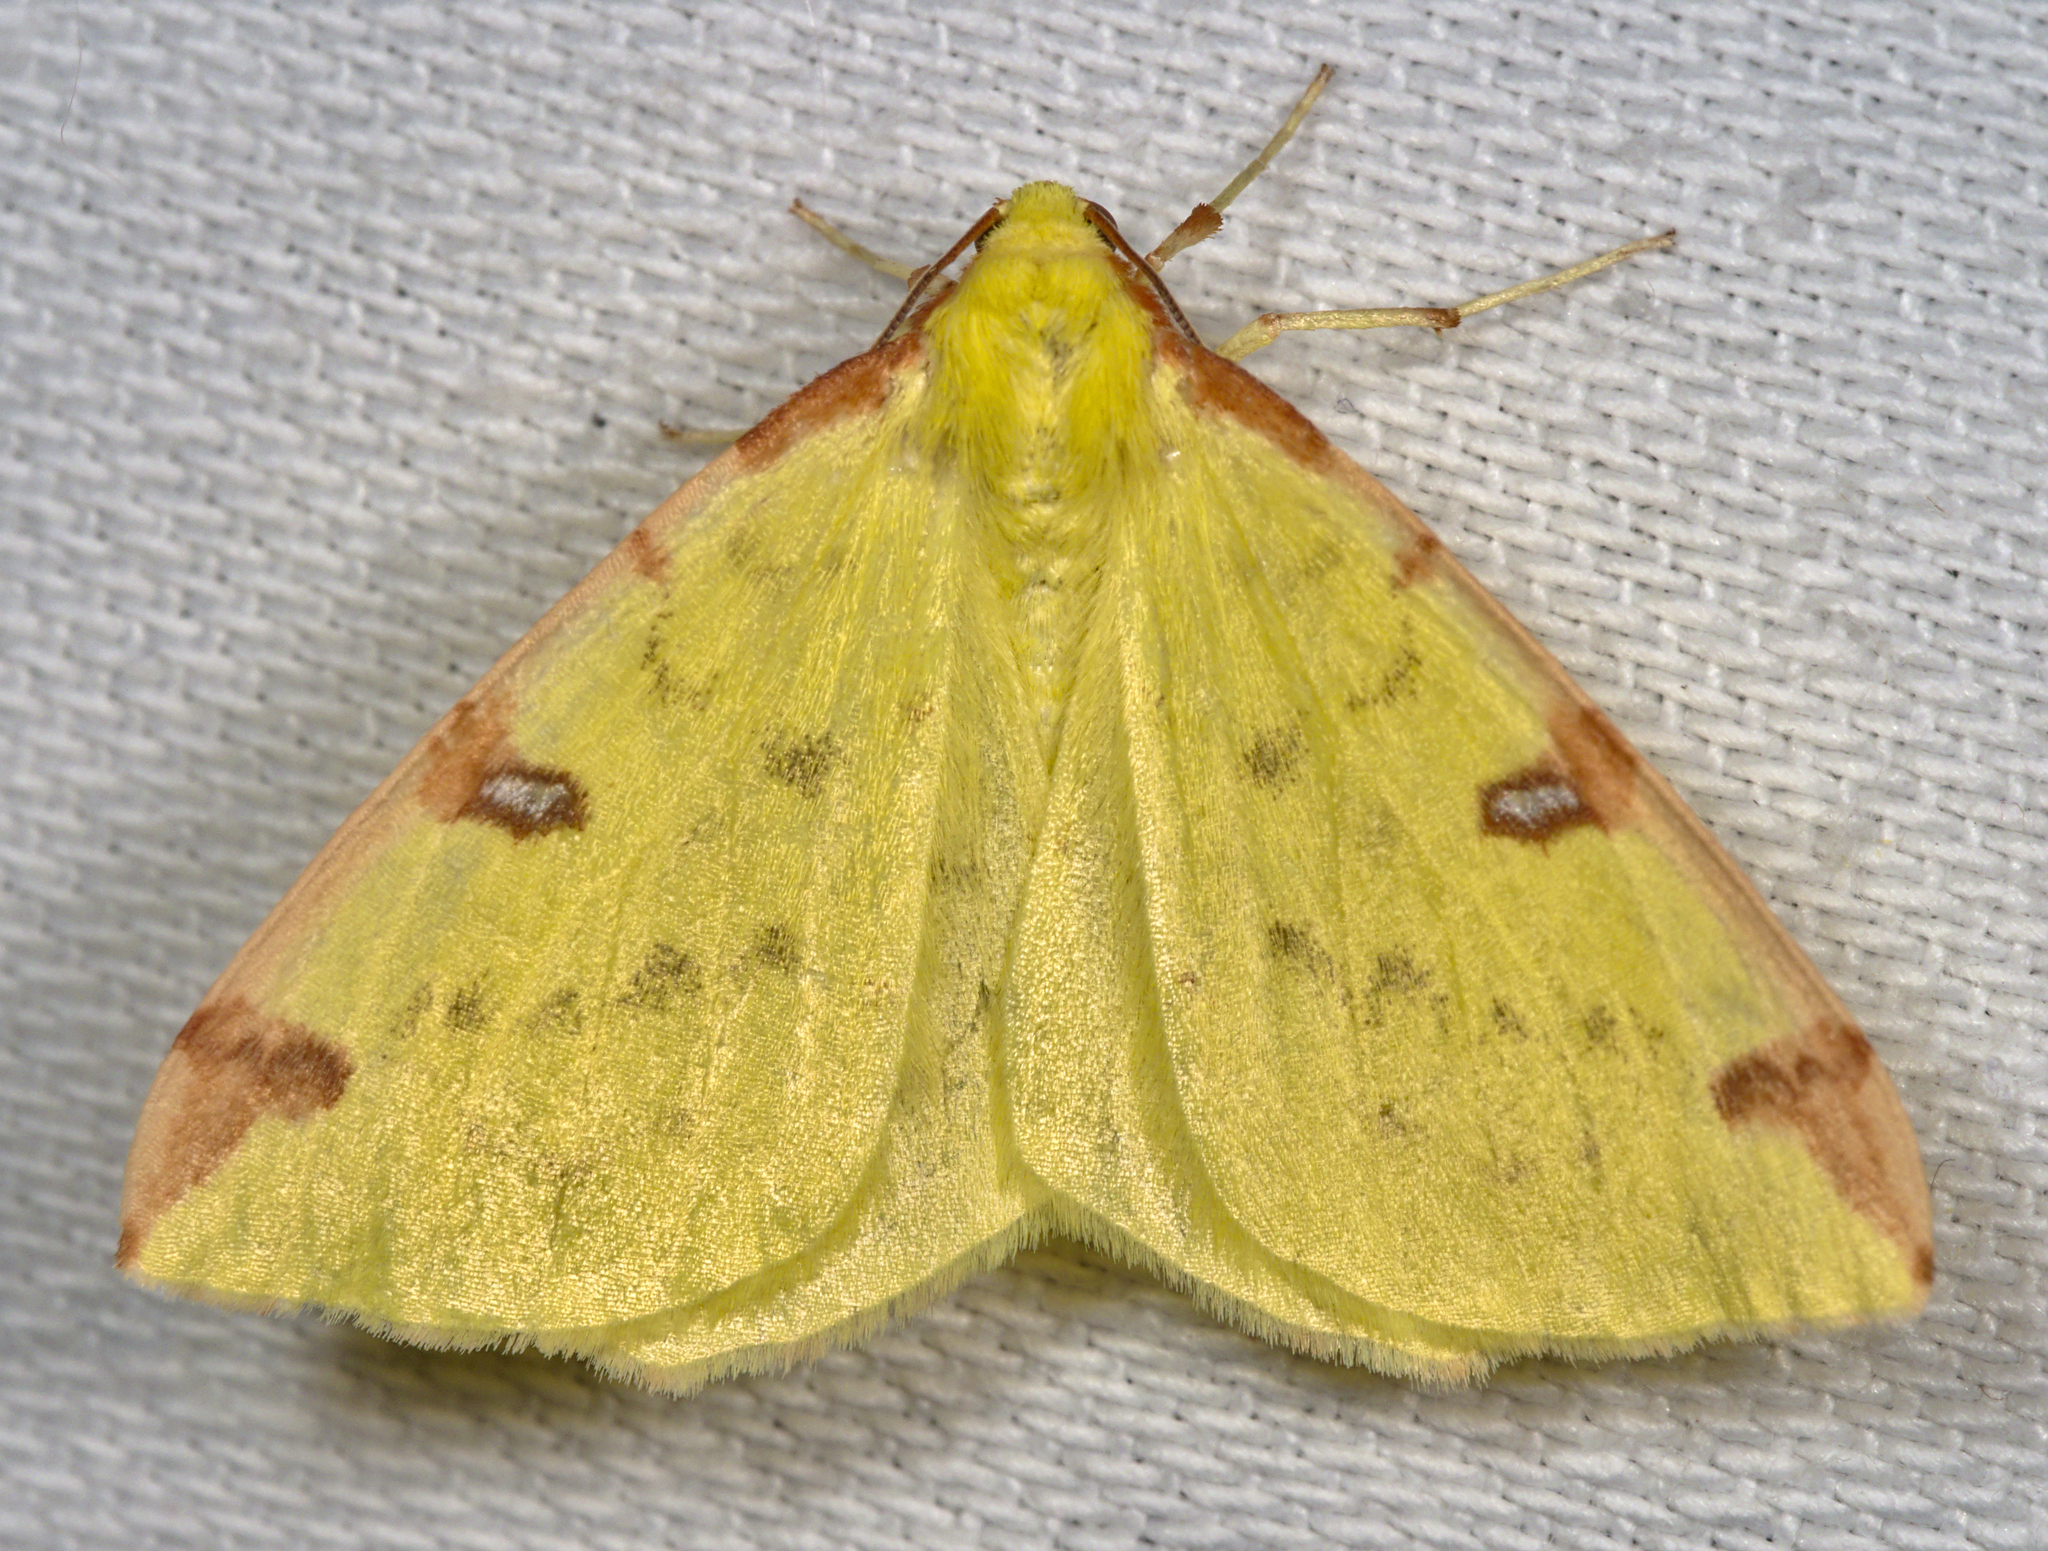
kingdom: Animalia
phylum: Arthropoda
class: Insecta
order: Lepidoptera
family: Geometridae
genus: Opisthograptis
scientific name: Opisthograptis luteolata
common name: Brimstone moth
